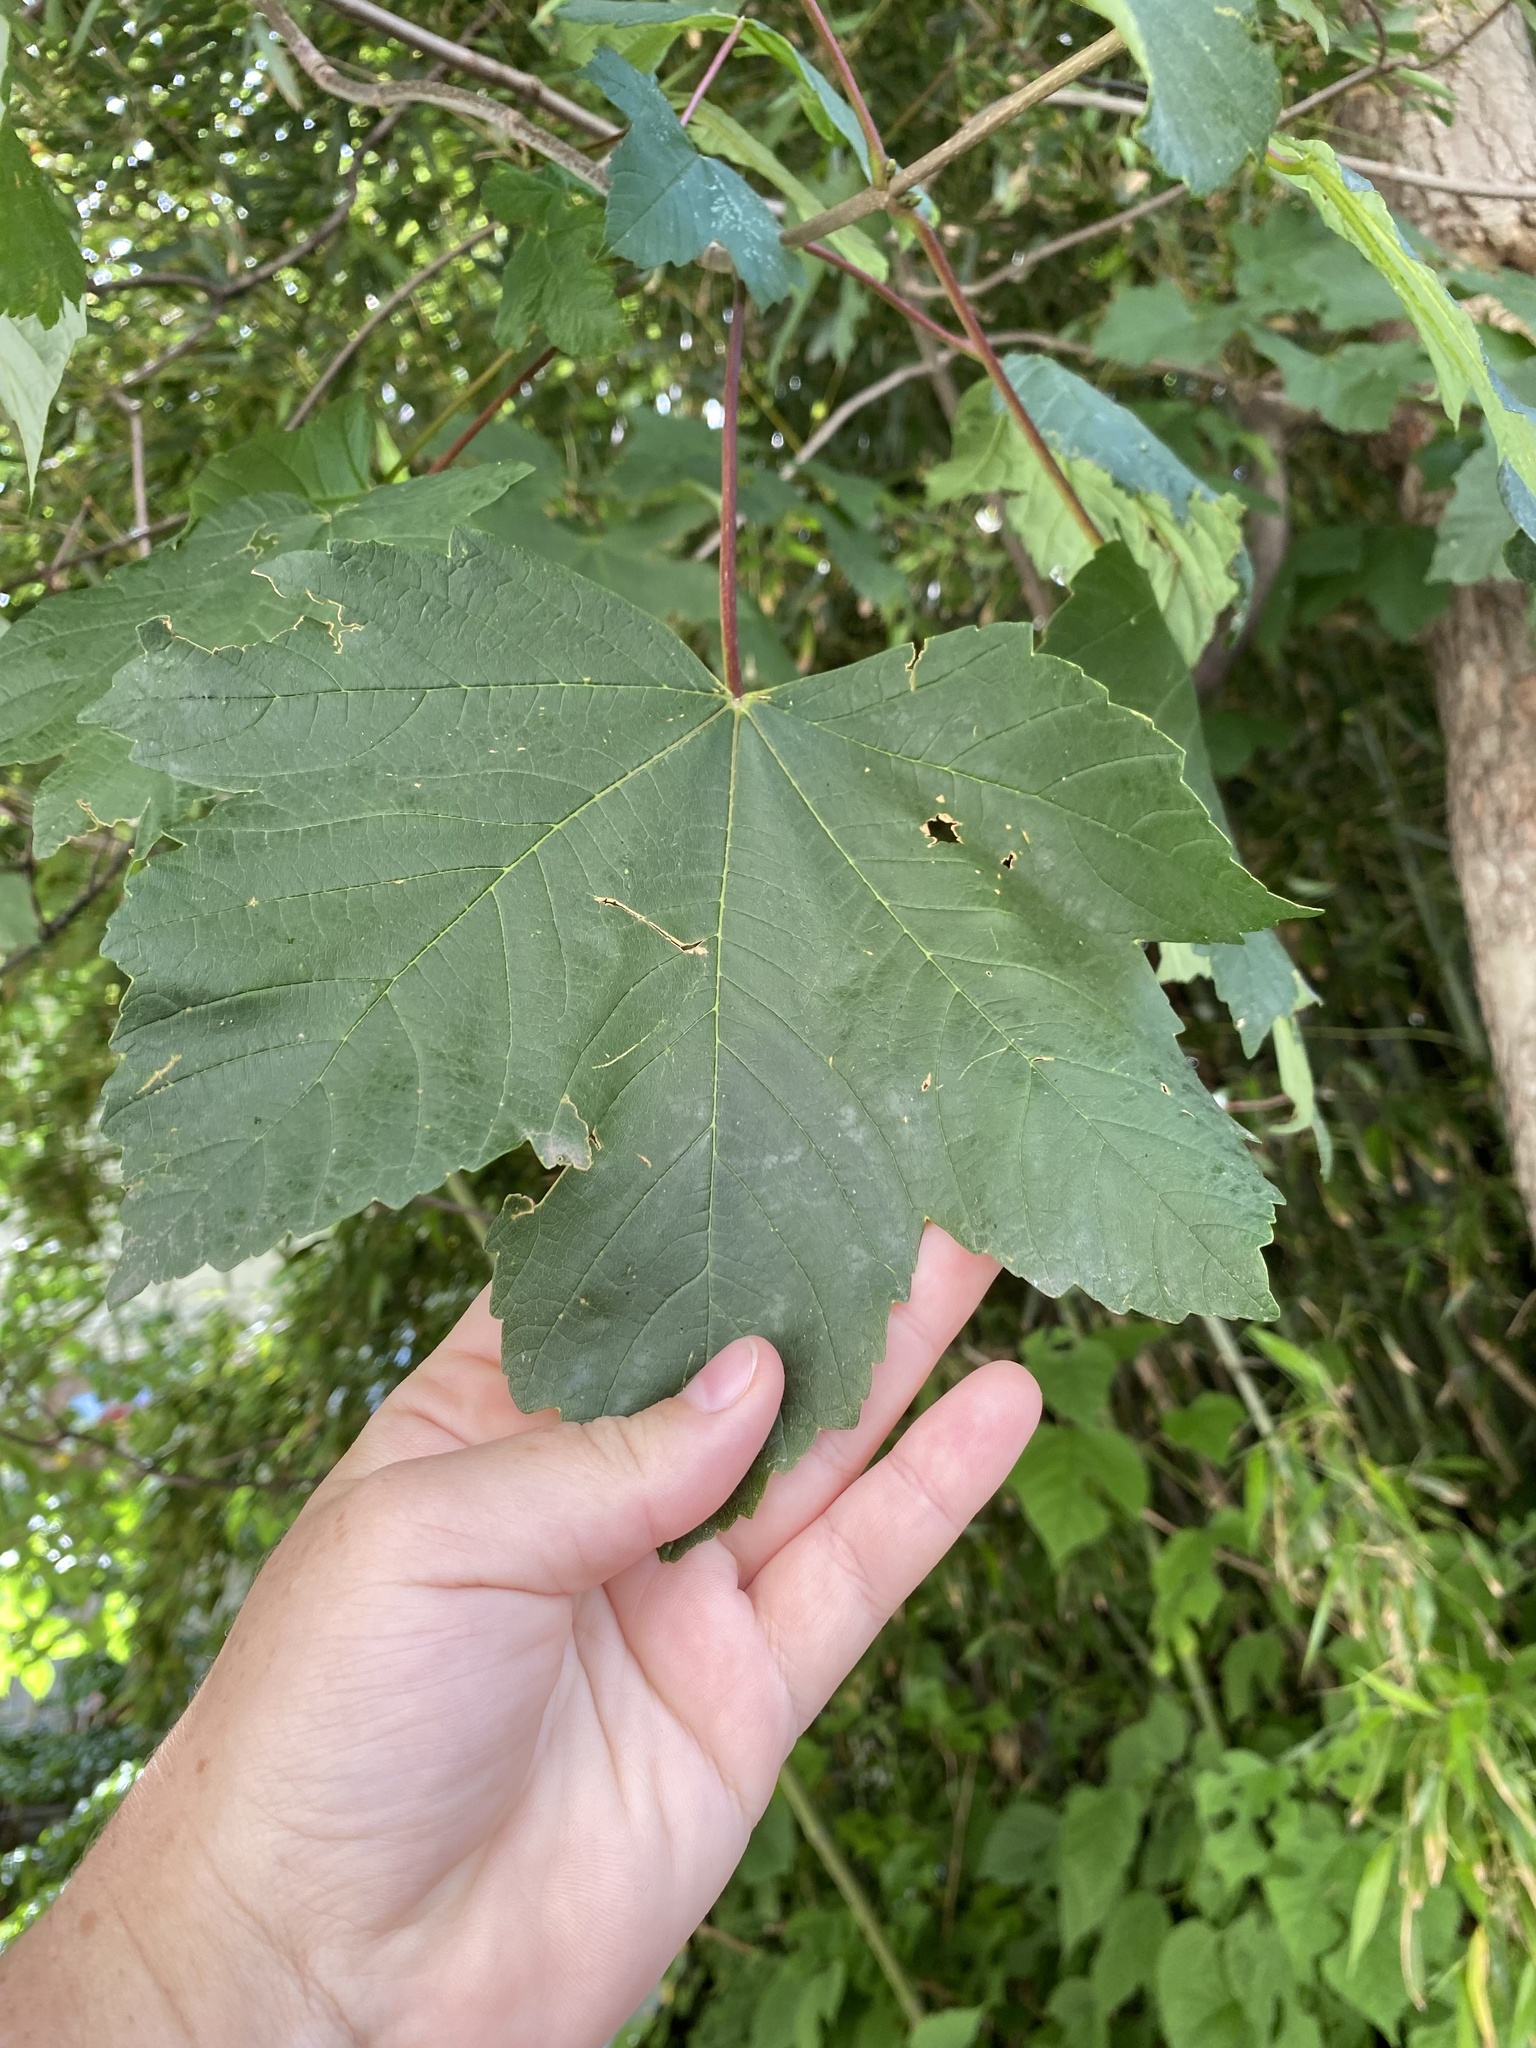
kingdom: Plantae
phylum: Tracheophyta
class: Magnoliopsida
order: Sapindales
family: Sapindaceae
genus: Acer
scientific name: Acer pseudoplatanus
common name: Sycamore
